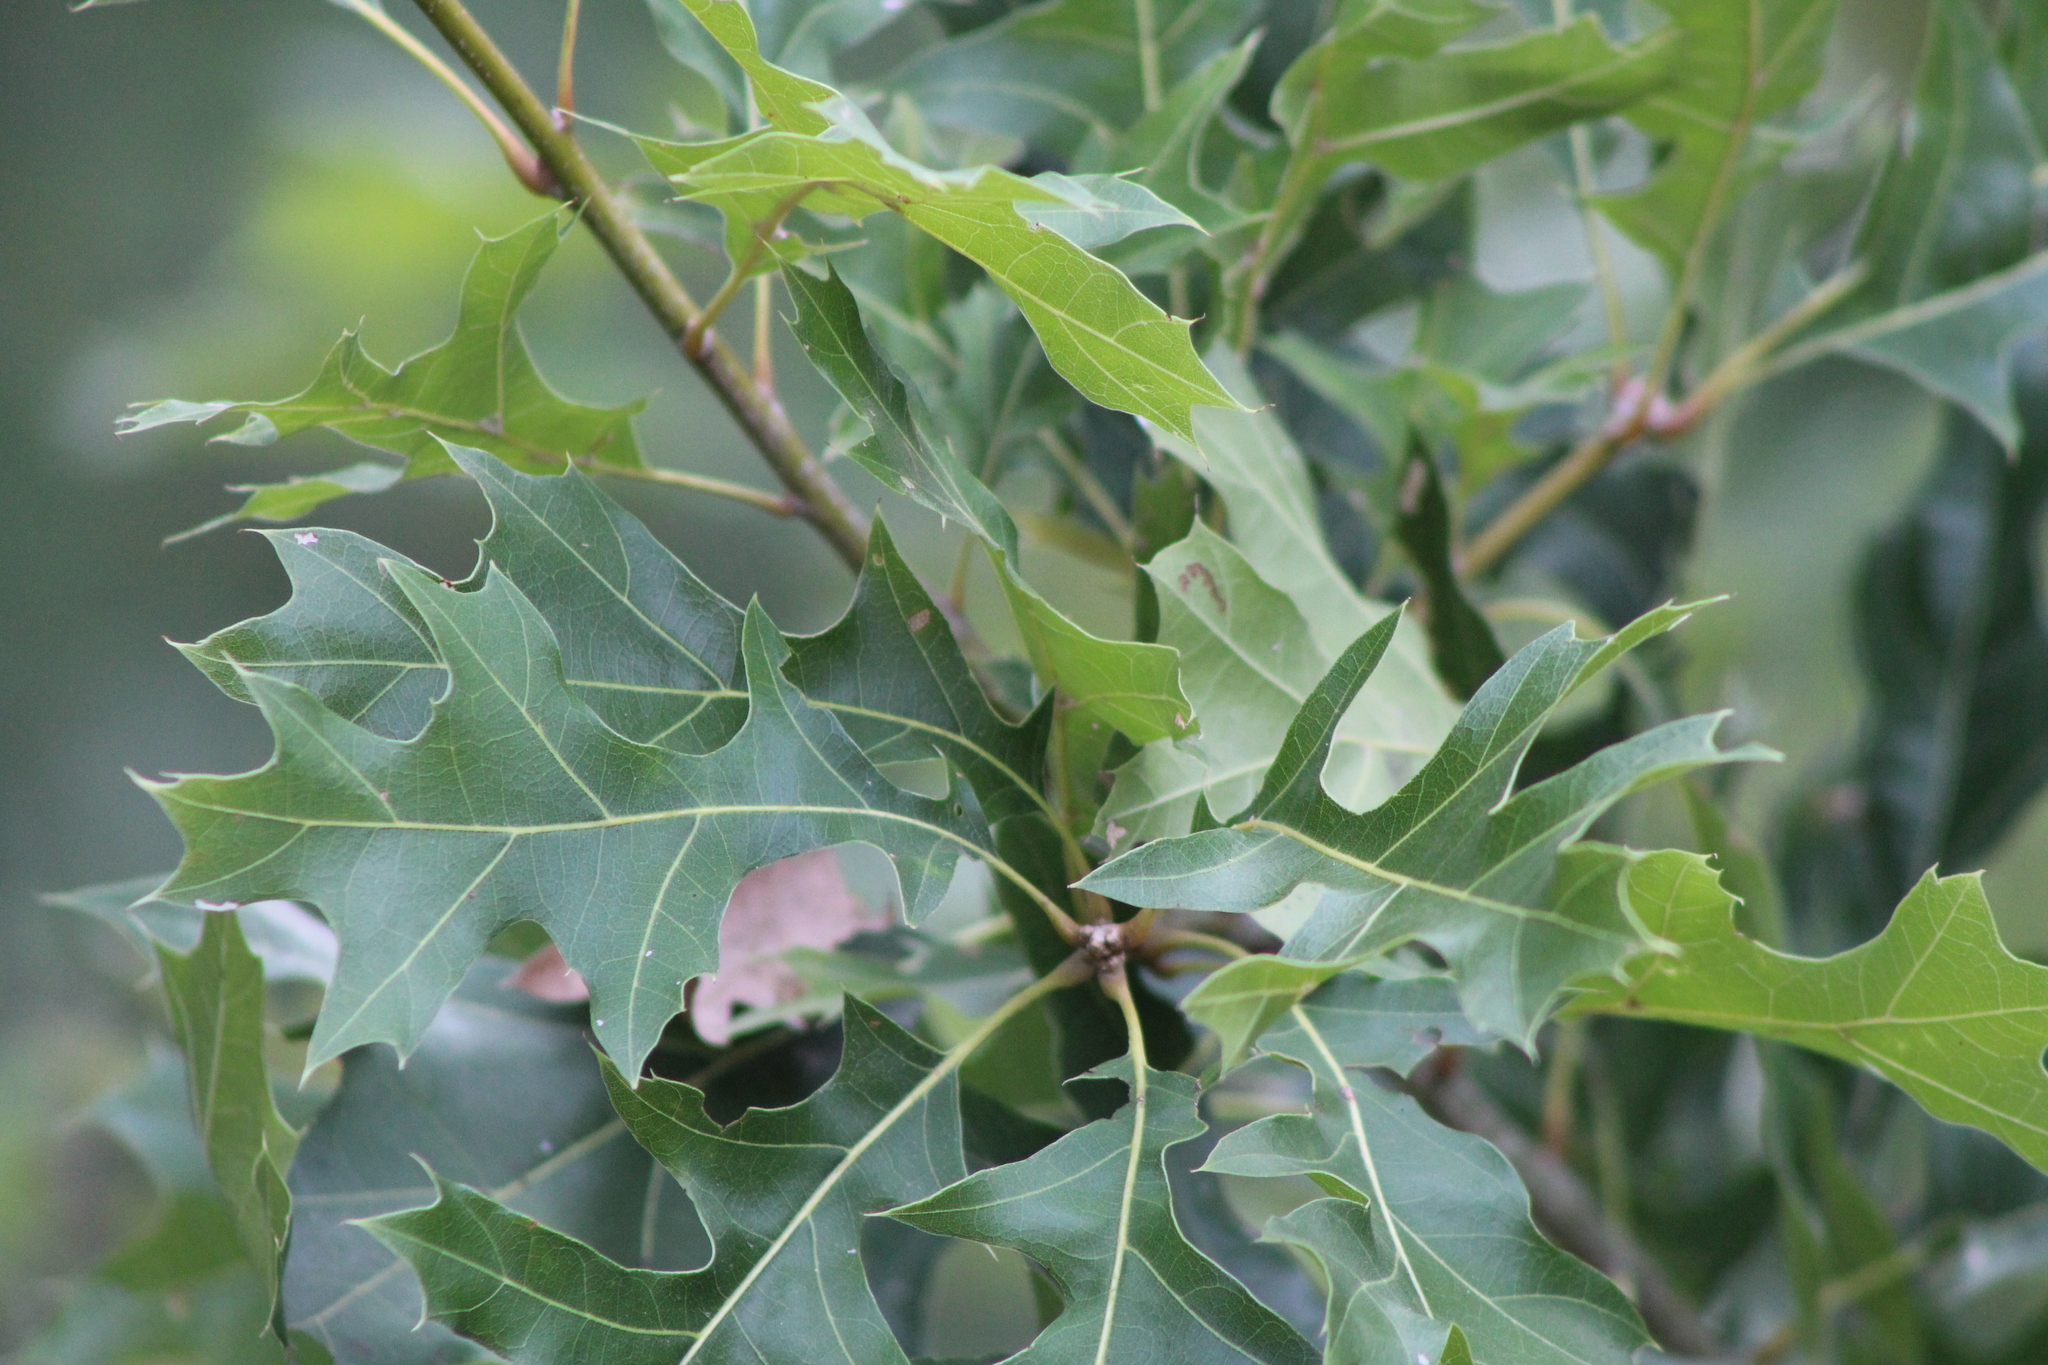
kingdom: Plantae
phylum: Tracheophyta
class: Magnoliopsida
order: Fagales
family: Fagaceae
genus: Quercus
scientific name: Quercus
